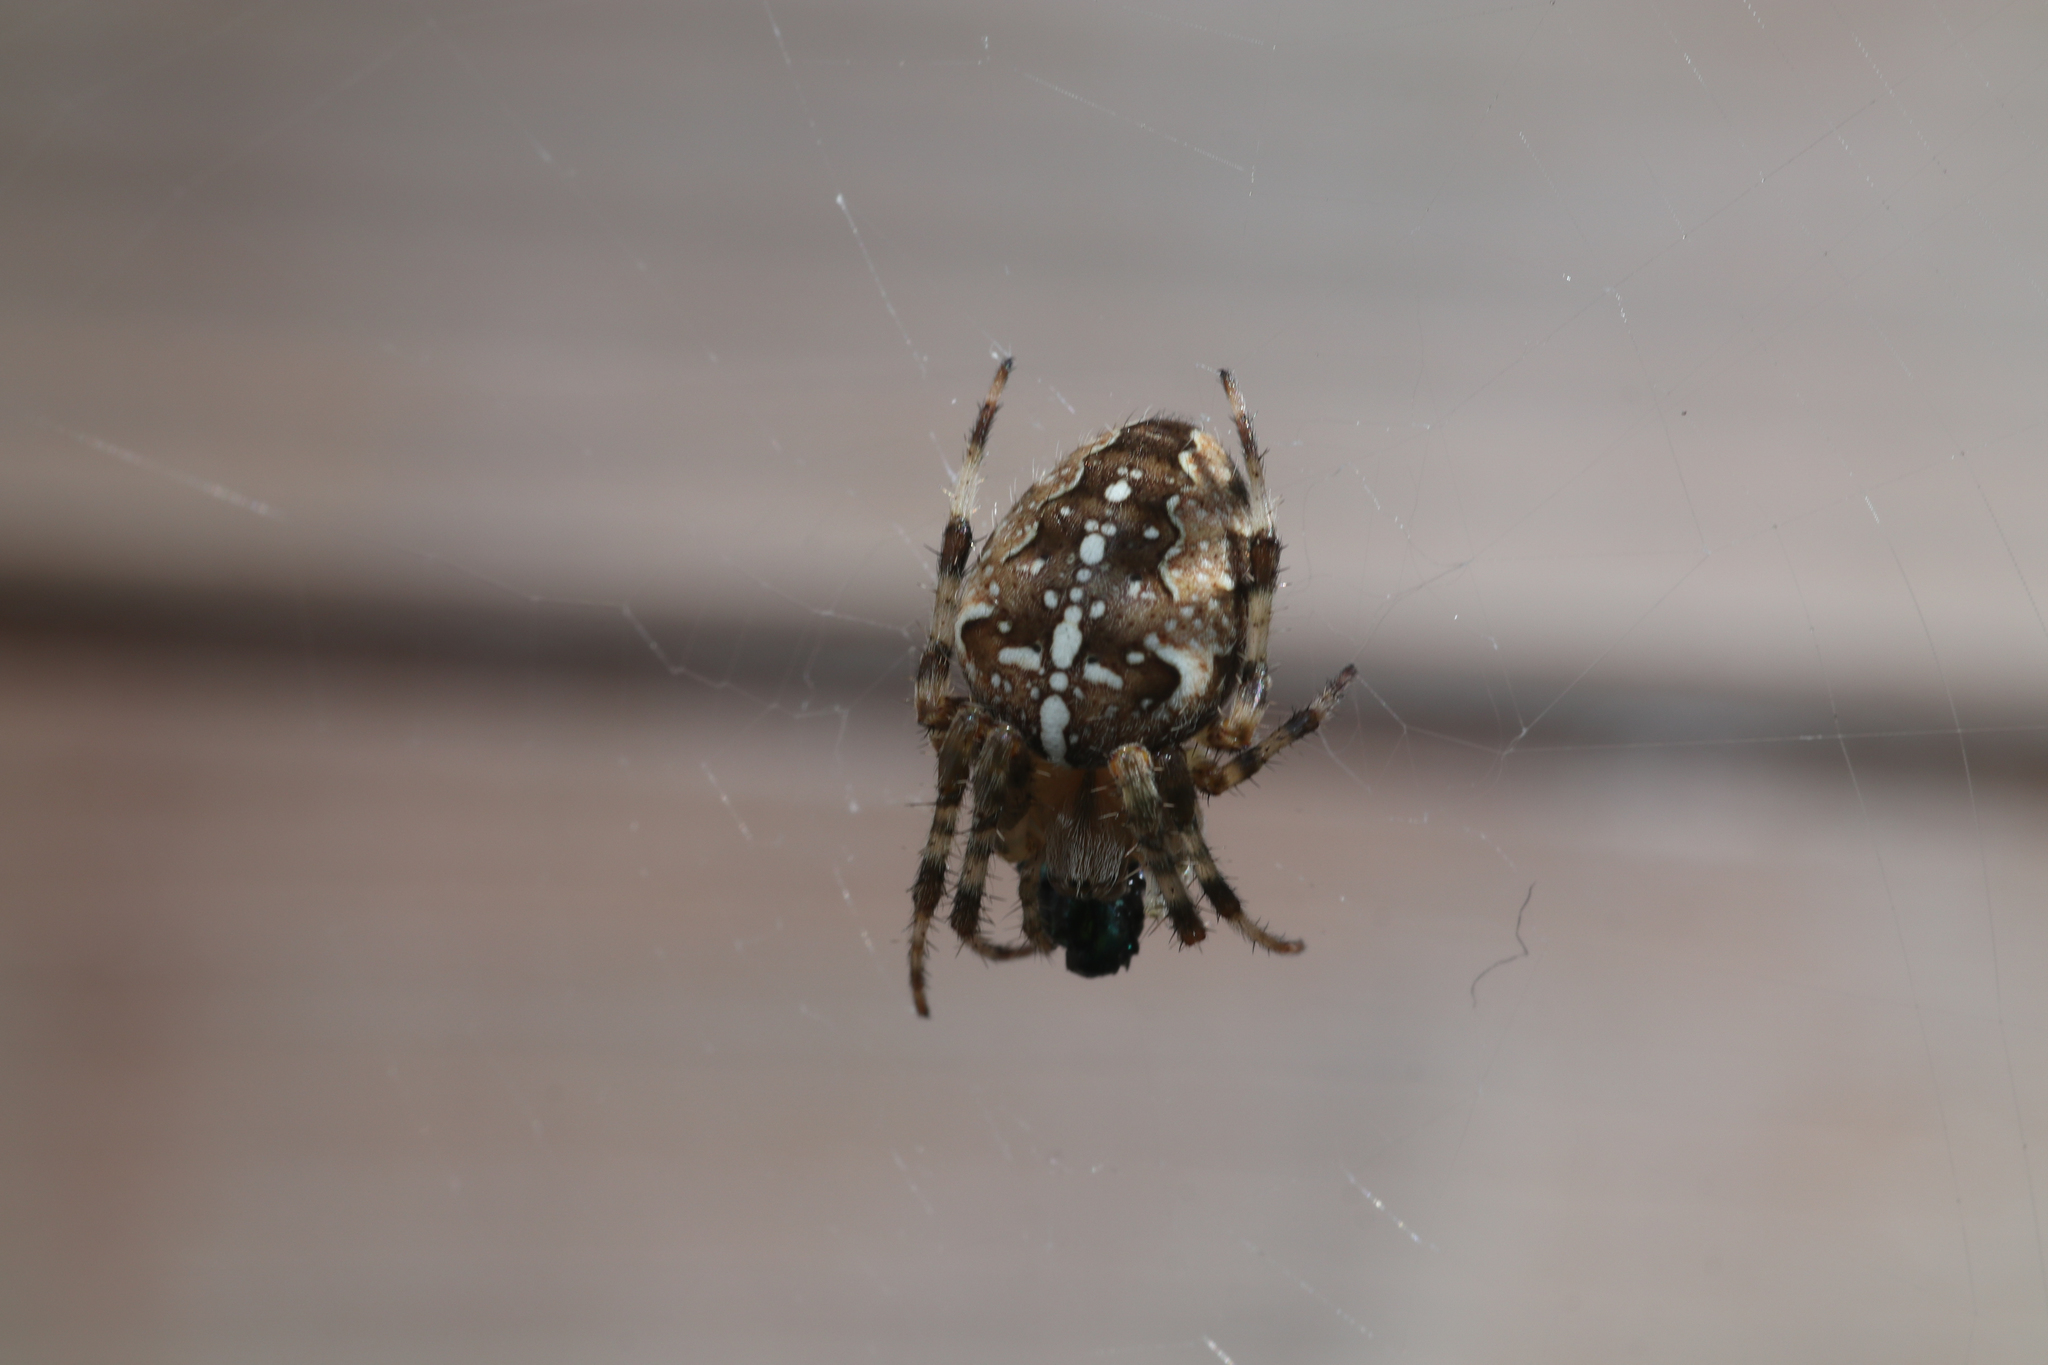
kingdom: Animalia
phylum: Arthropoda
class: Arachnida
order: Araneae
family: Araneidae
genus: Araneus
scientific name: Araneus diadematus
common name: Cross orbweaver
